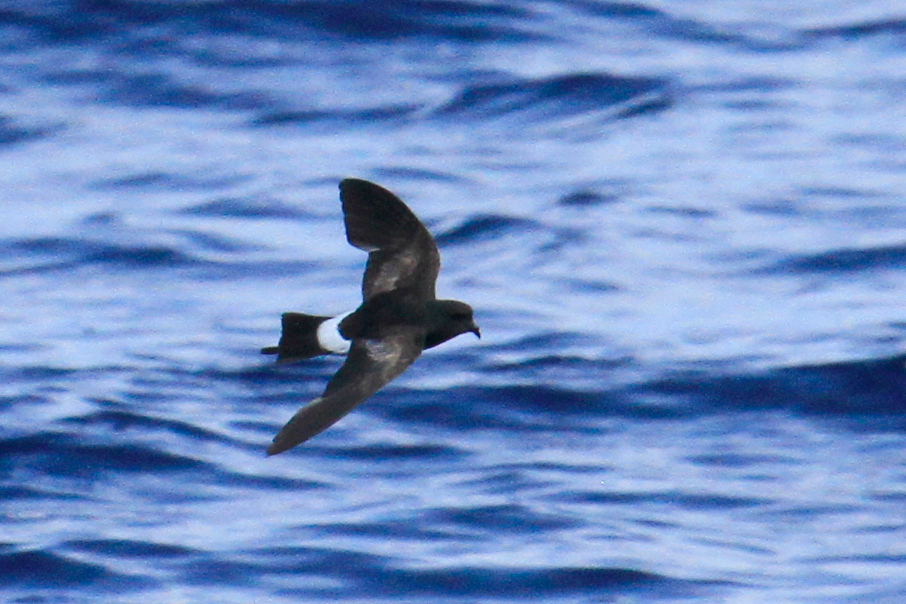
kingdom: Animalia
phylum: Chordata
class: Aves
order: Procellariiformes
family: Hydrobatidae
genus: Oceanites
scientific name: Oceanites oceanicus
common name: Wilson's storm petrel
